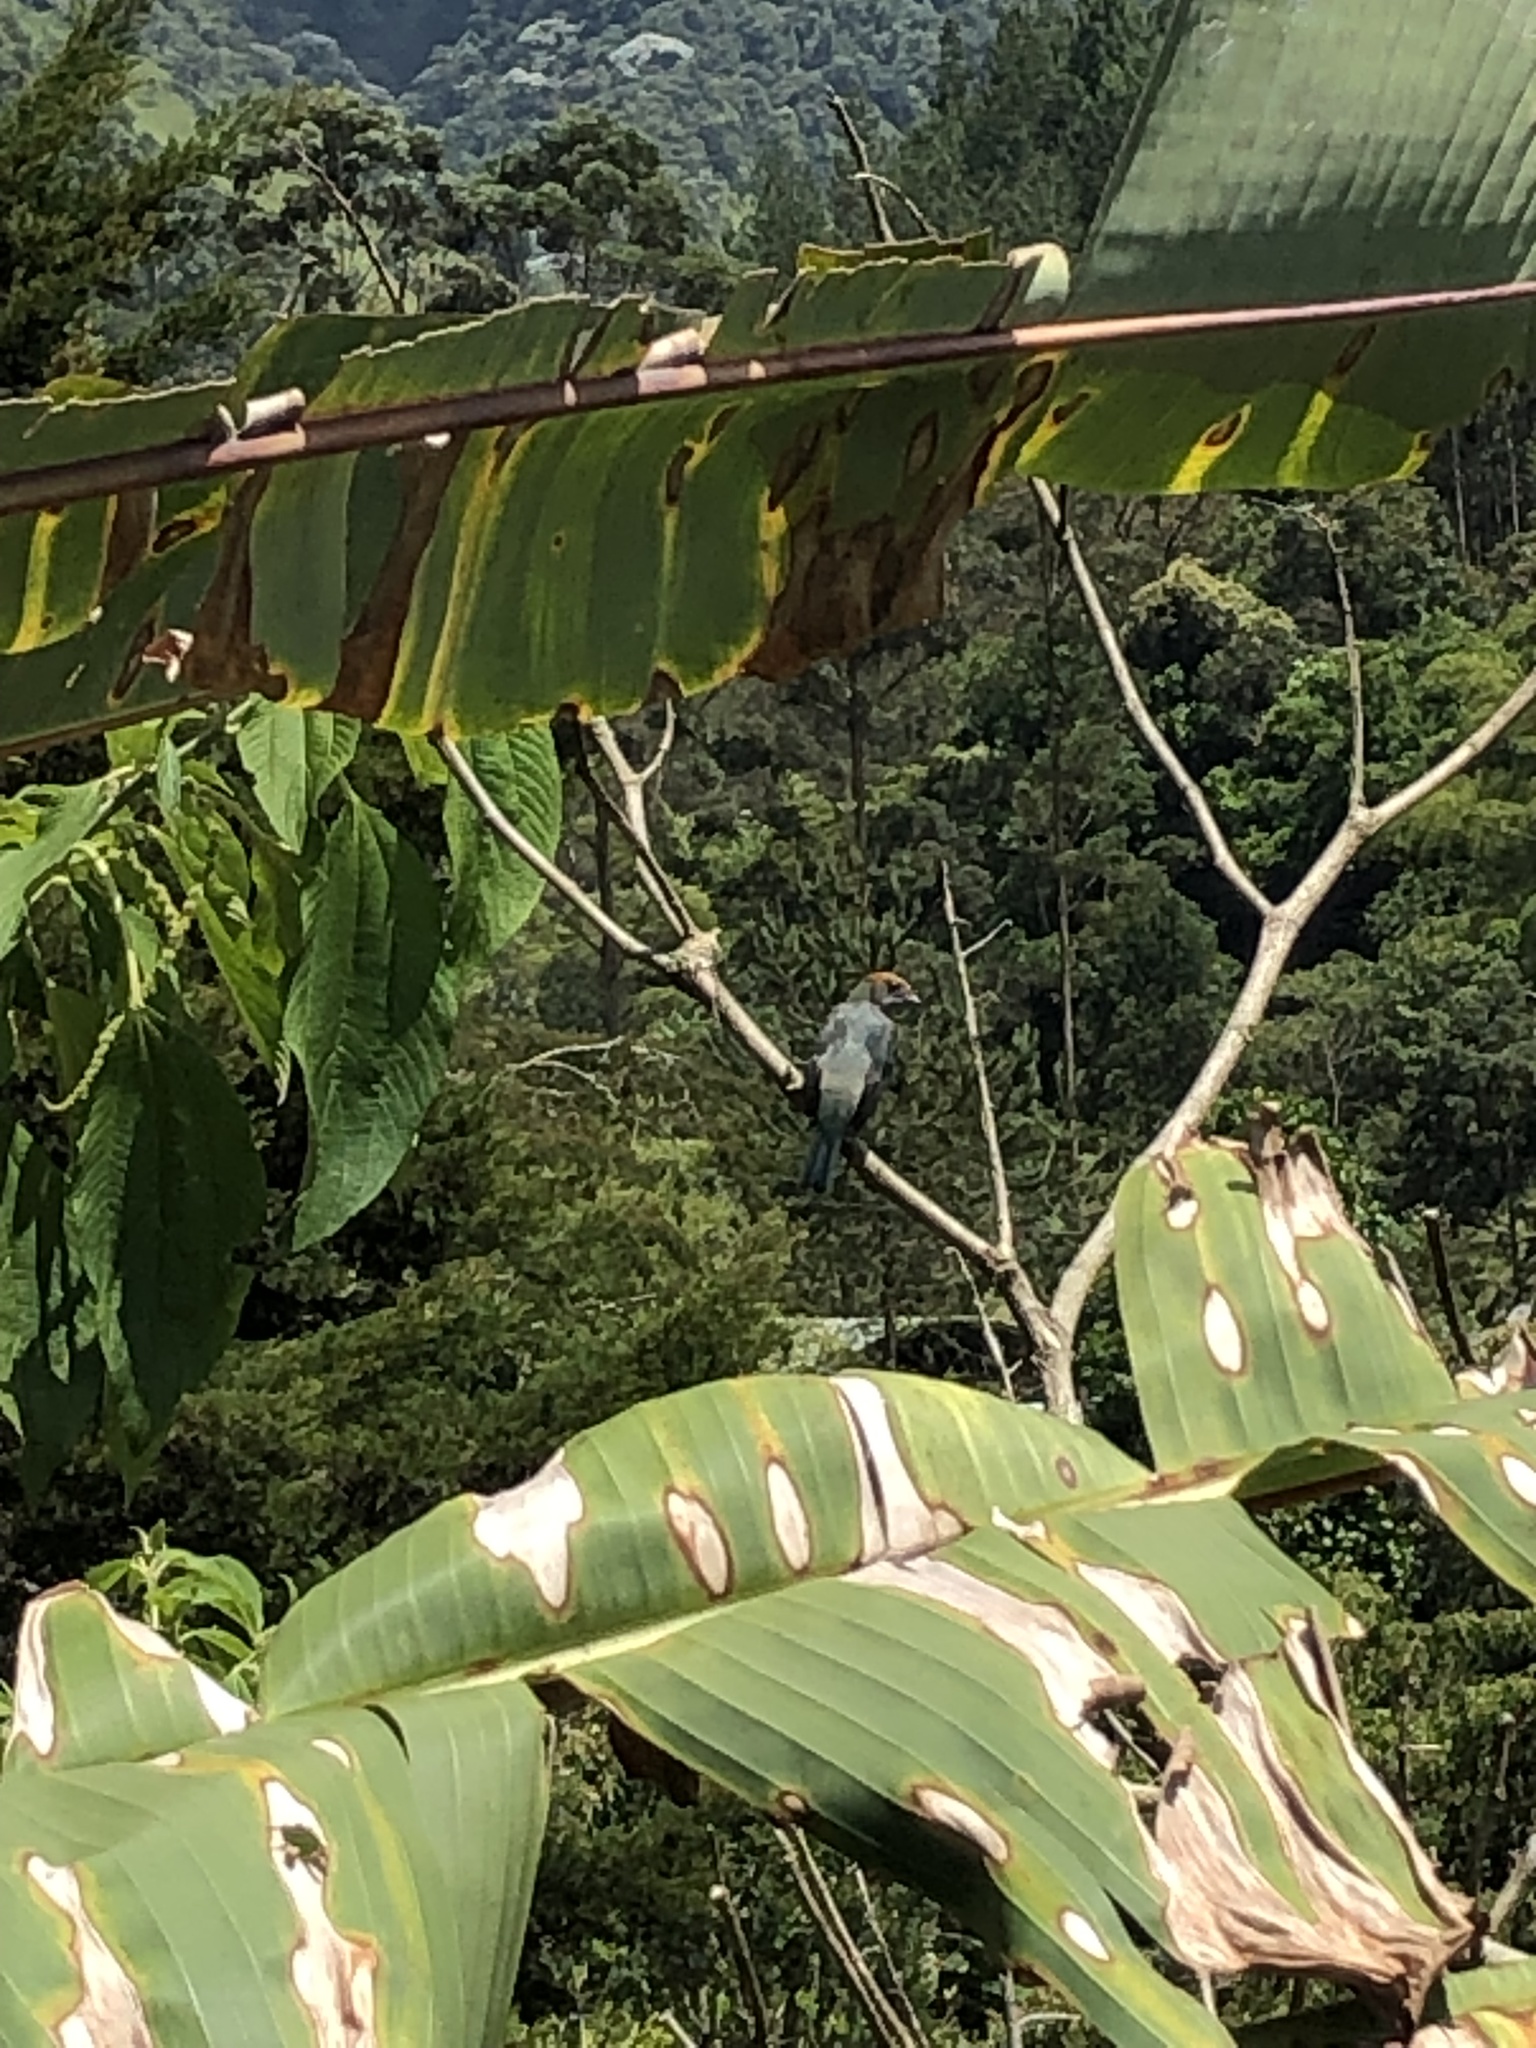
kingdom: Animalia
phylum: Chordata
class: Aves
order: Passeriformes
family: Thraupidae
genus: Stilpnia
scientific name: Stilpnia vitriolina
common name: Scrub tanager
